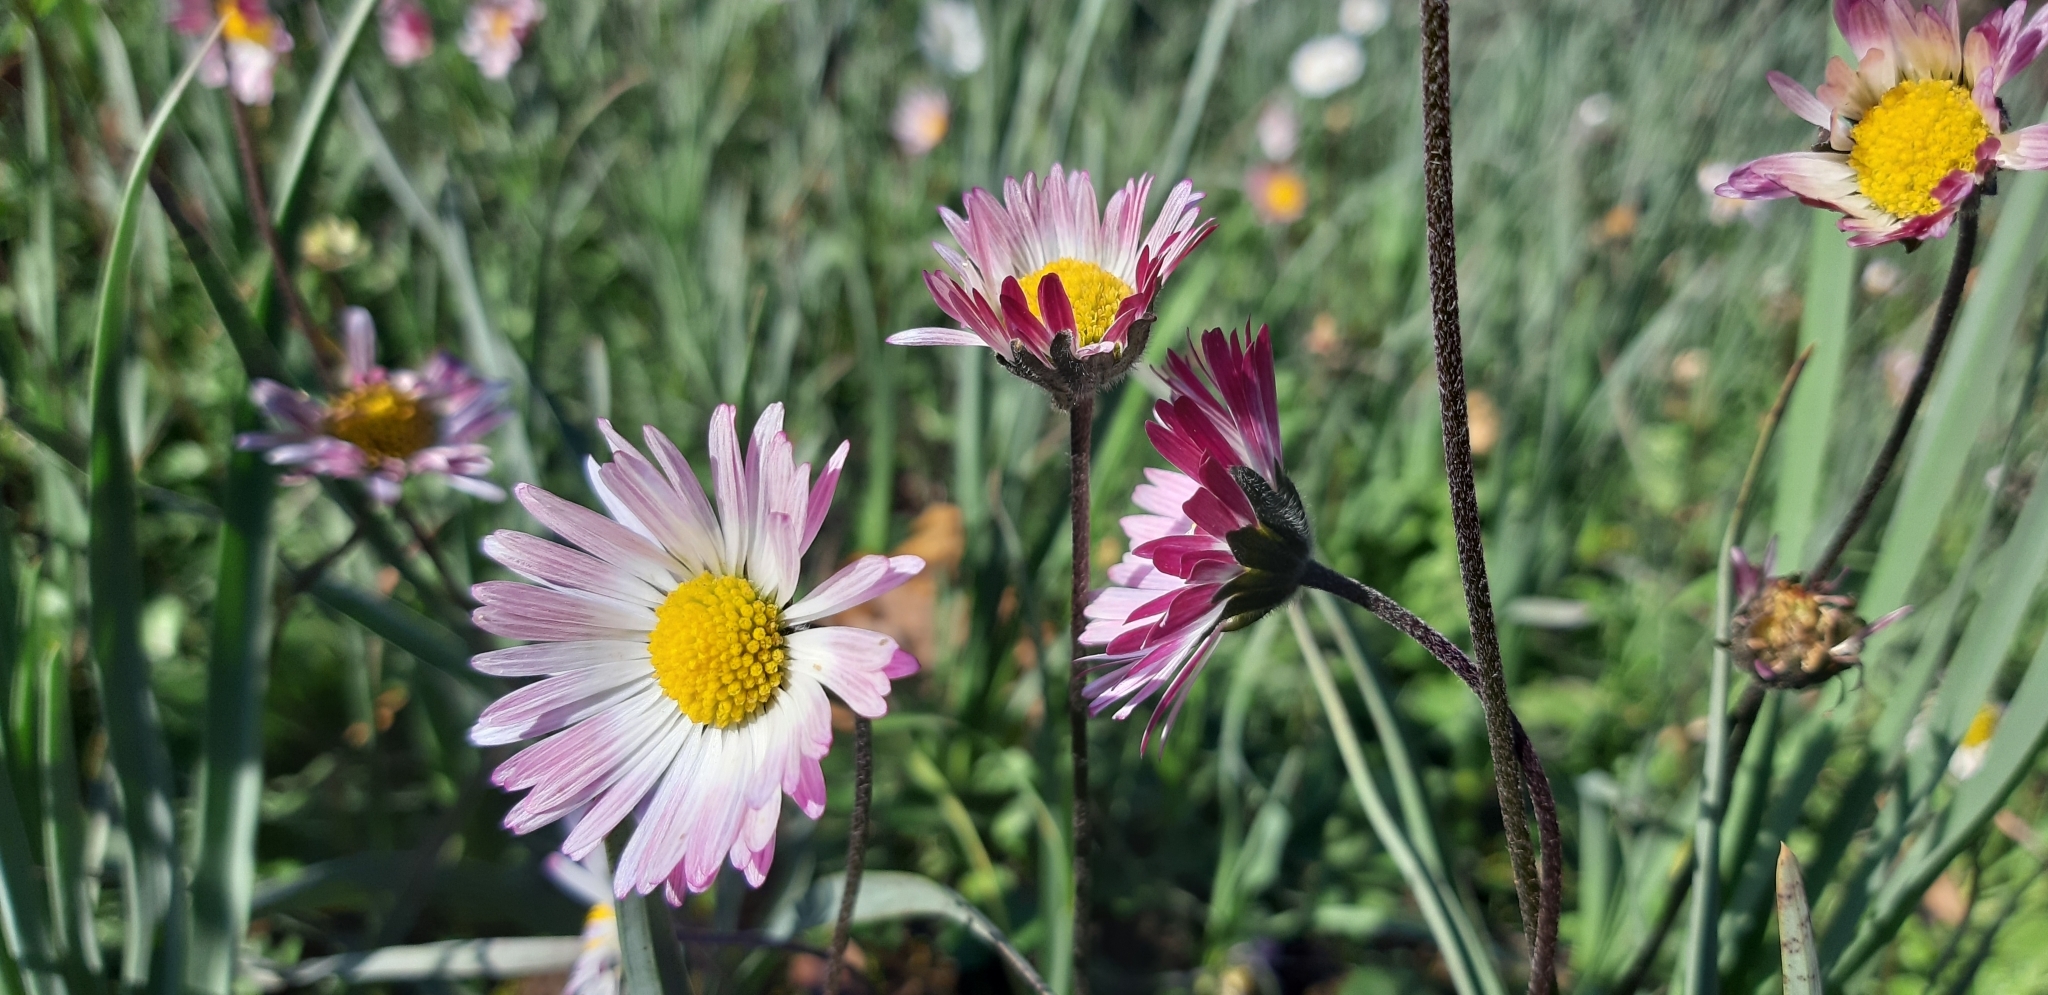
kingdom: Plantae
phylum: Tracheophyta
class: Magnoliopsida
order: Asterales
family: Asteraceae
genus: Bellis
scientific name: Bellis sylvestris
